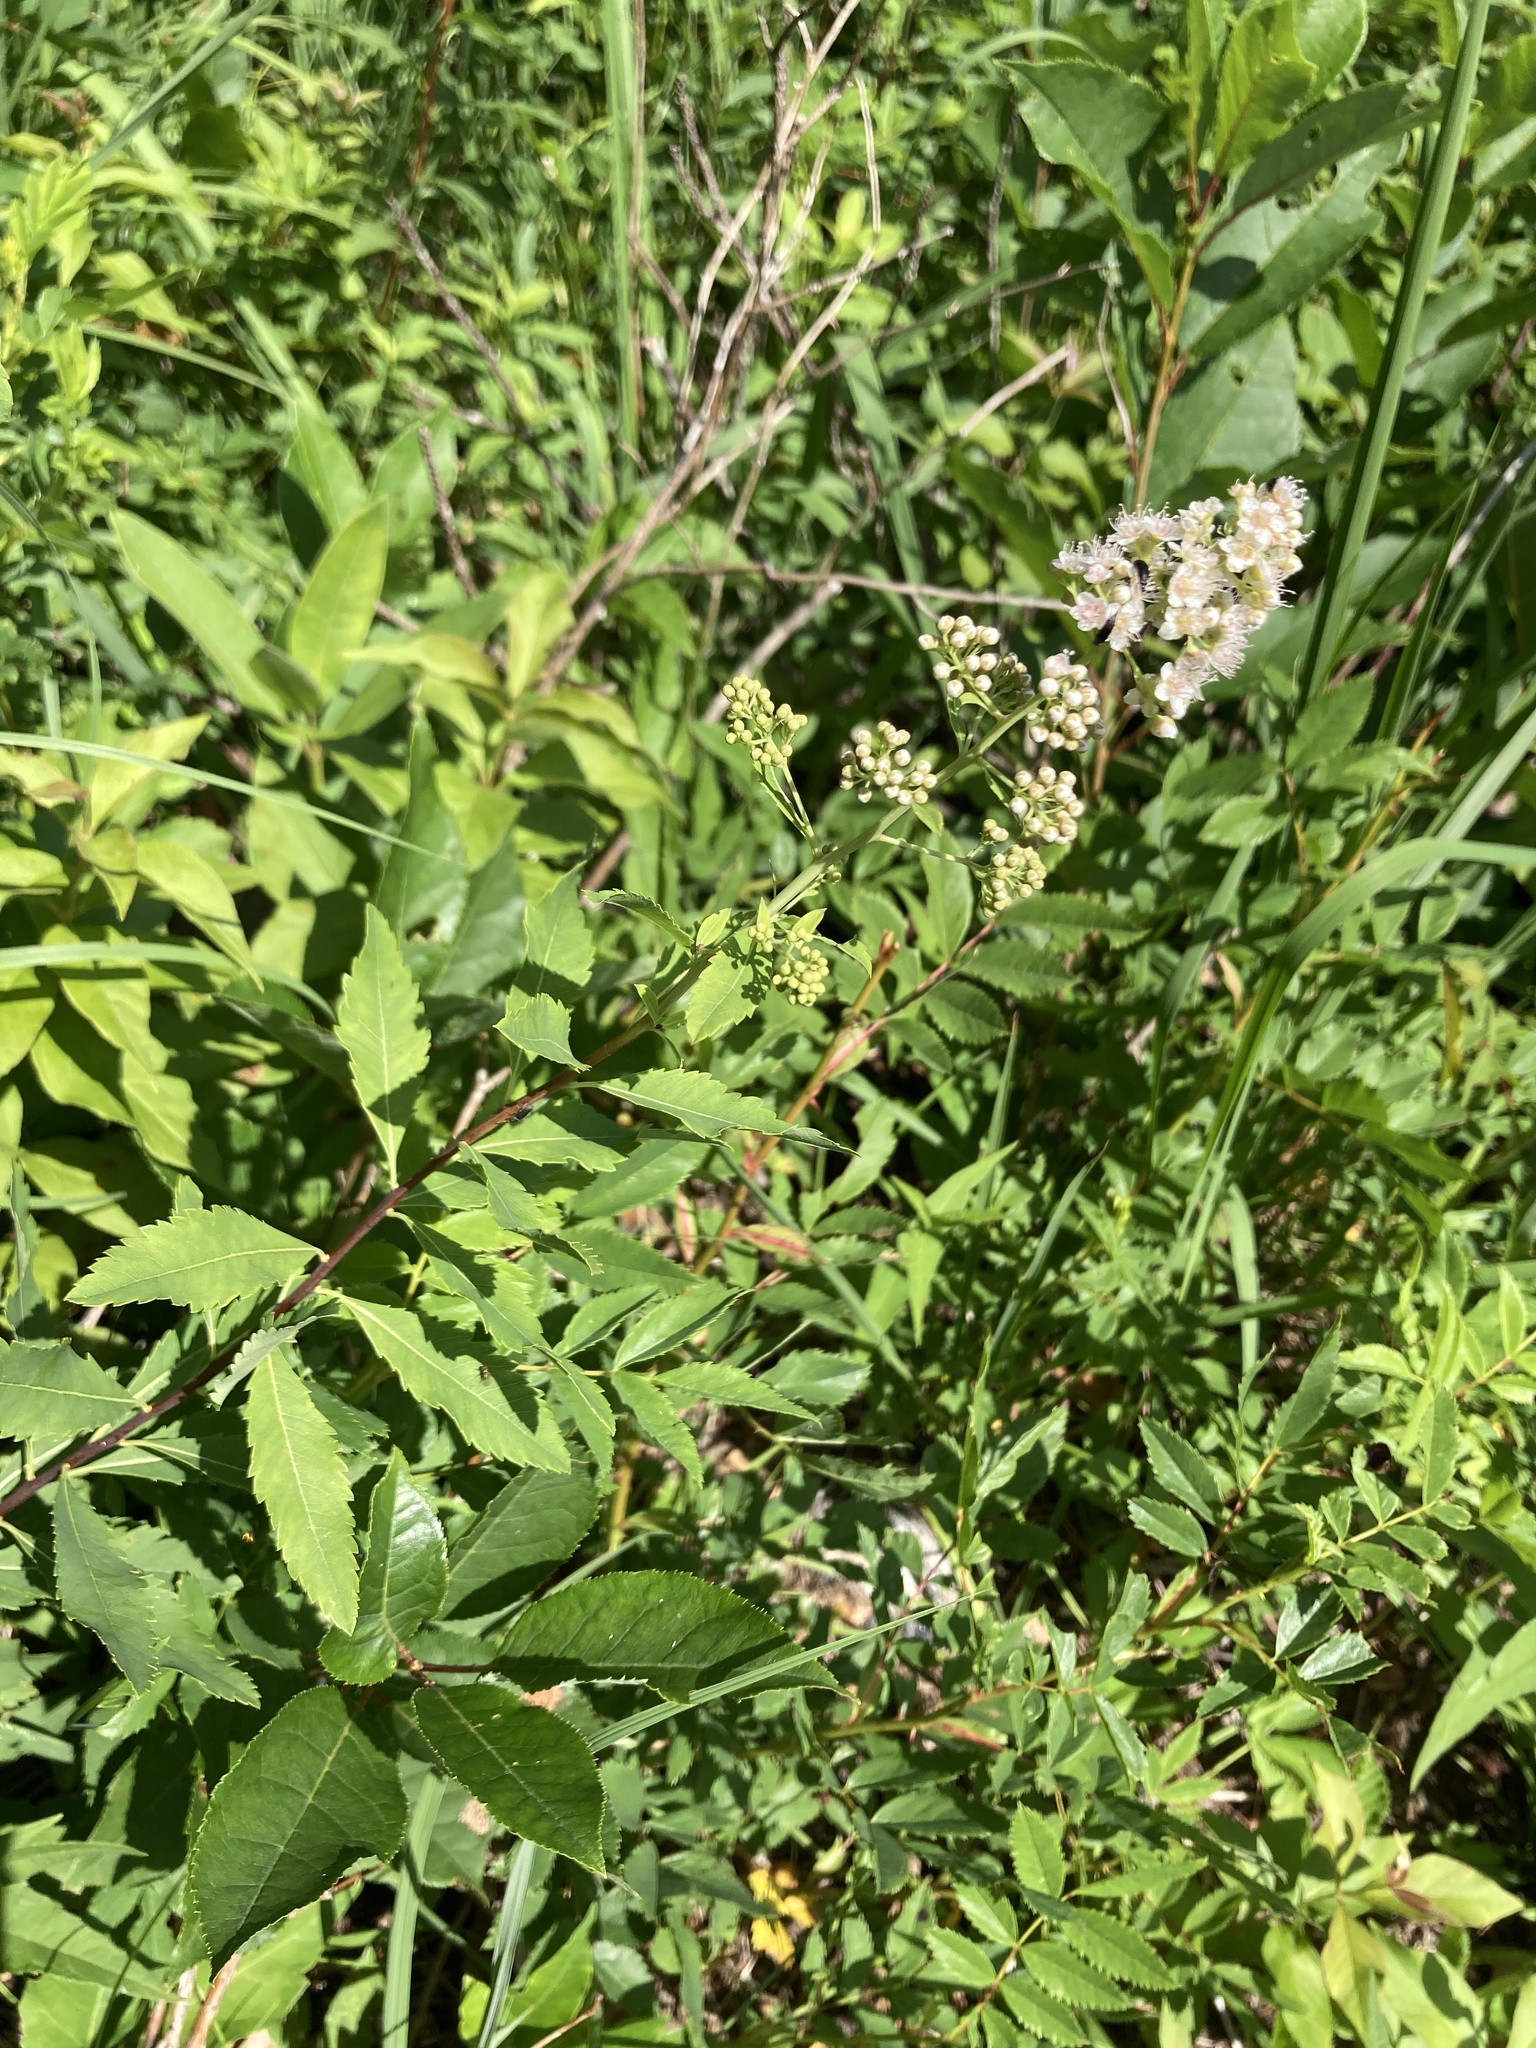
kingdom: Plantae
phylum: Tracheophyta
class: Magnoliopsida
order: Rosales
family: Rosaceae
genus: Spiraea
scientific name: Spiraea alba
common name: Pale bridewort
